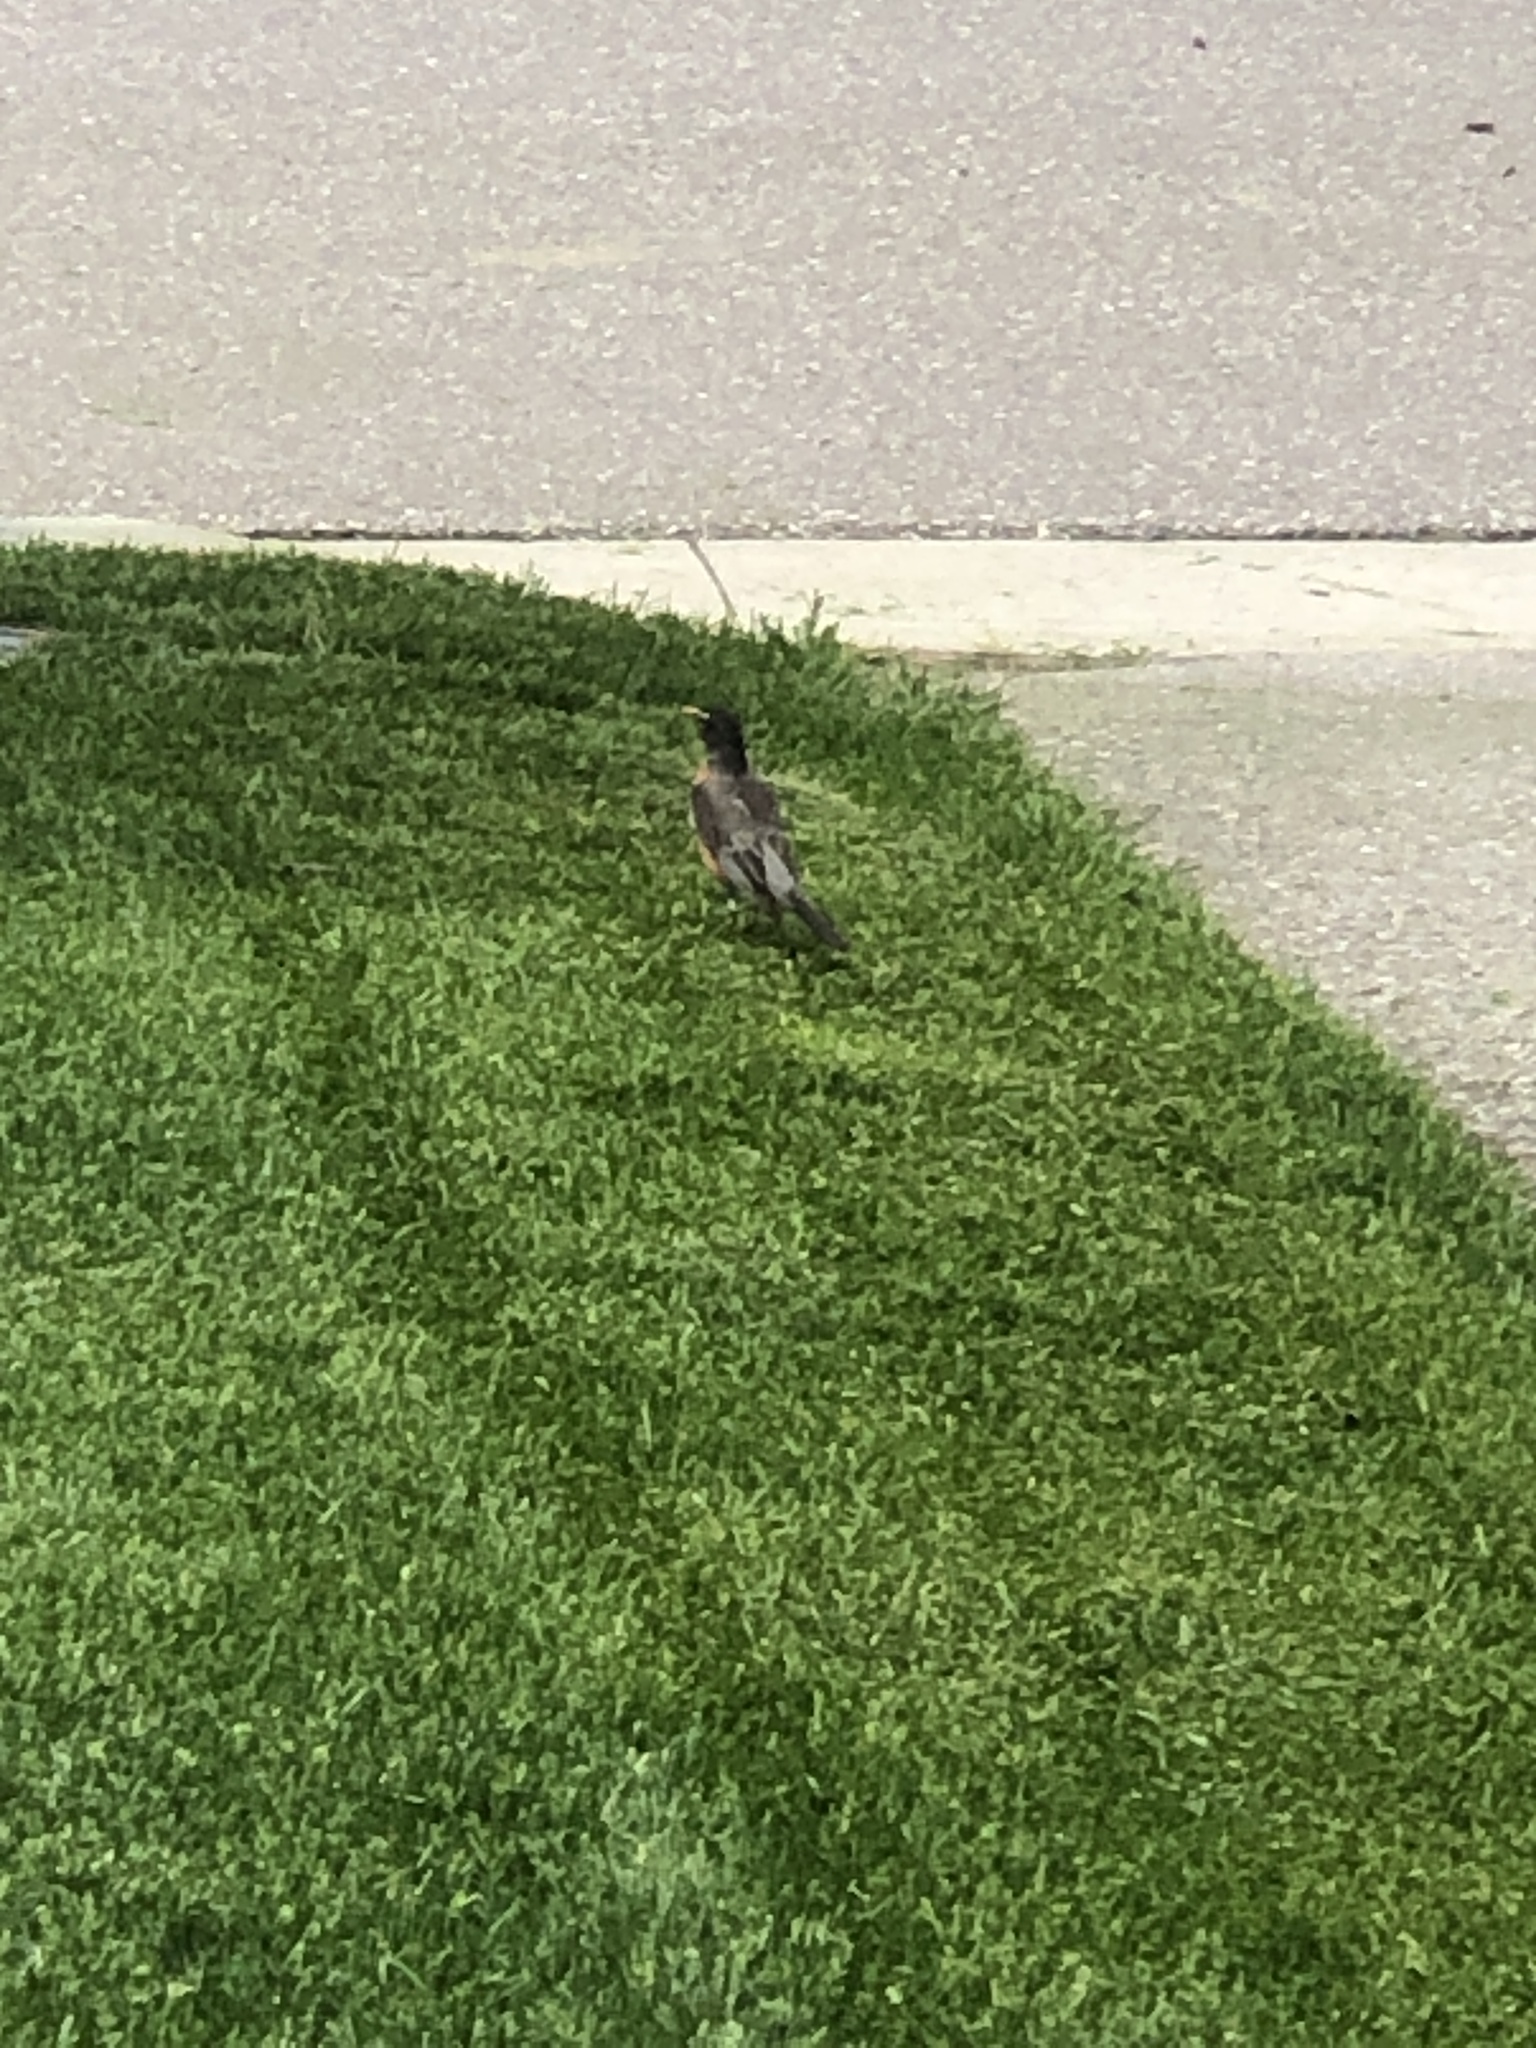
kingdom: Animalia
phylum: Chordata
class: Aves
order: Passeriformes
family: Turdidae
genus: Turdus
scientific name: Turdus migratorius
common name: American robin
